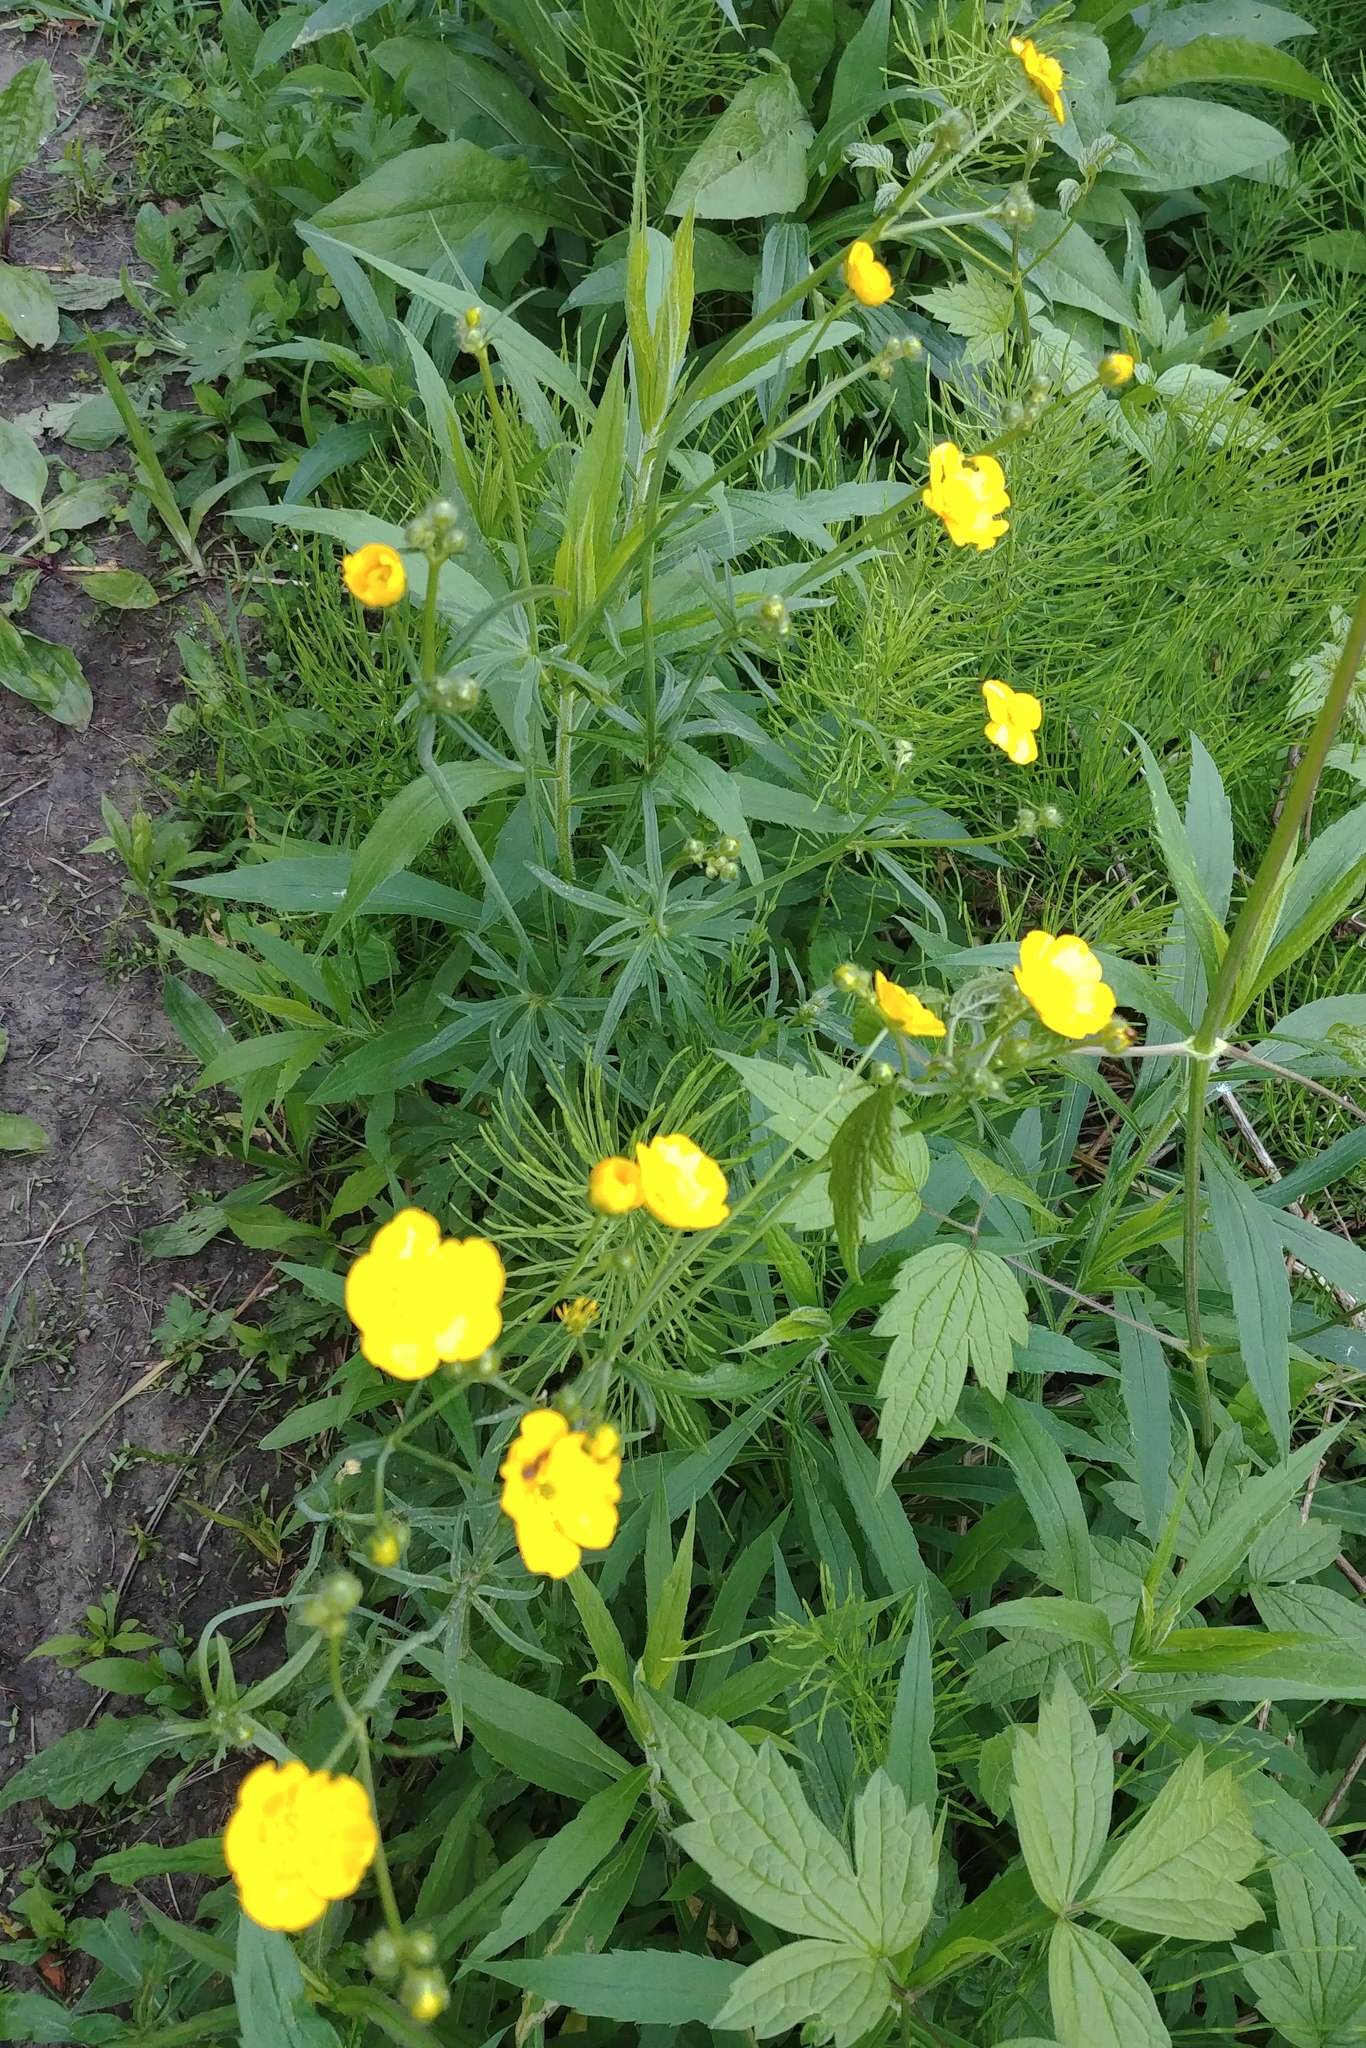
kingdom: Plantae
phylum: Tracheophyta
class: Magnoliopsida
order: Ranunculales
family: Ranunculaceae
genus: Ranunculus
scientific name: Ranunculus acris
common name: Meadow buttercup
